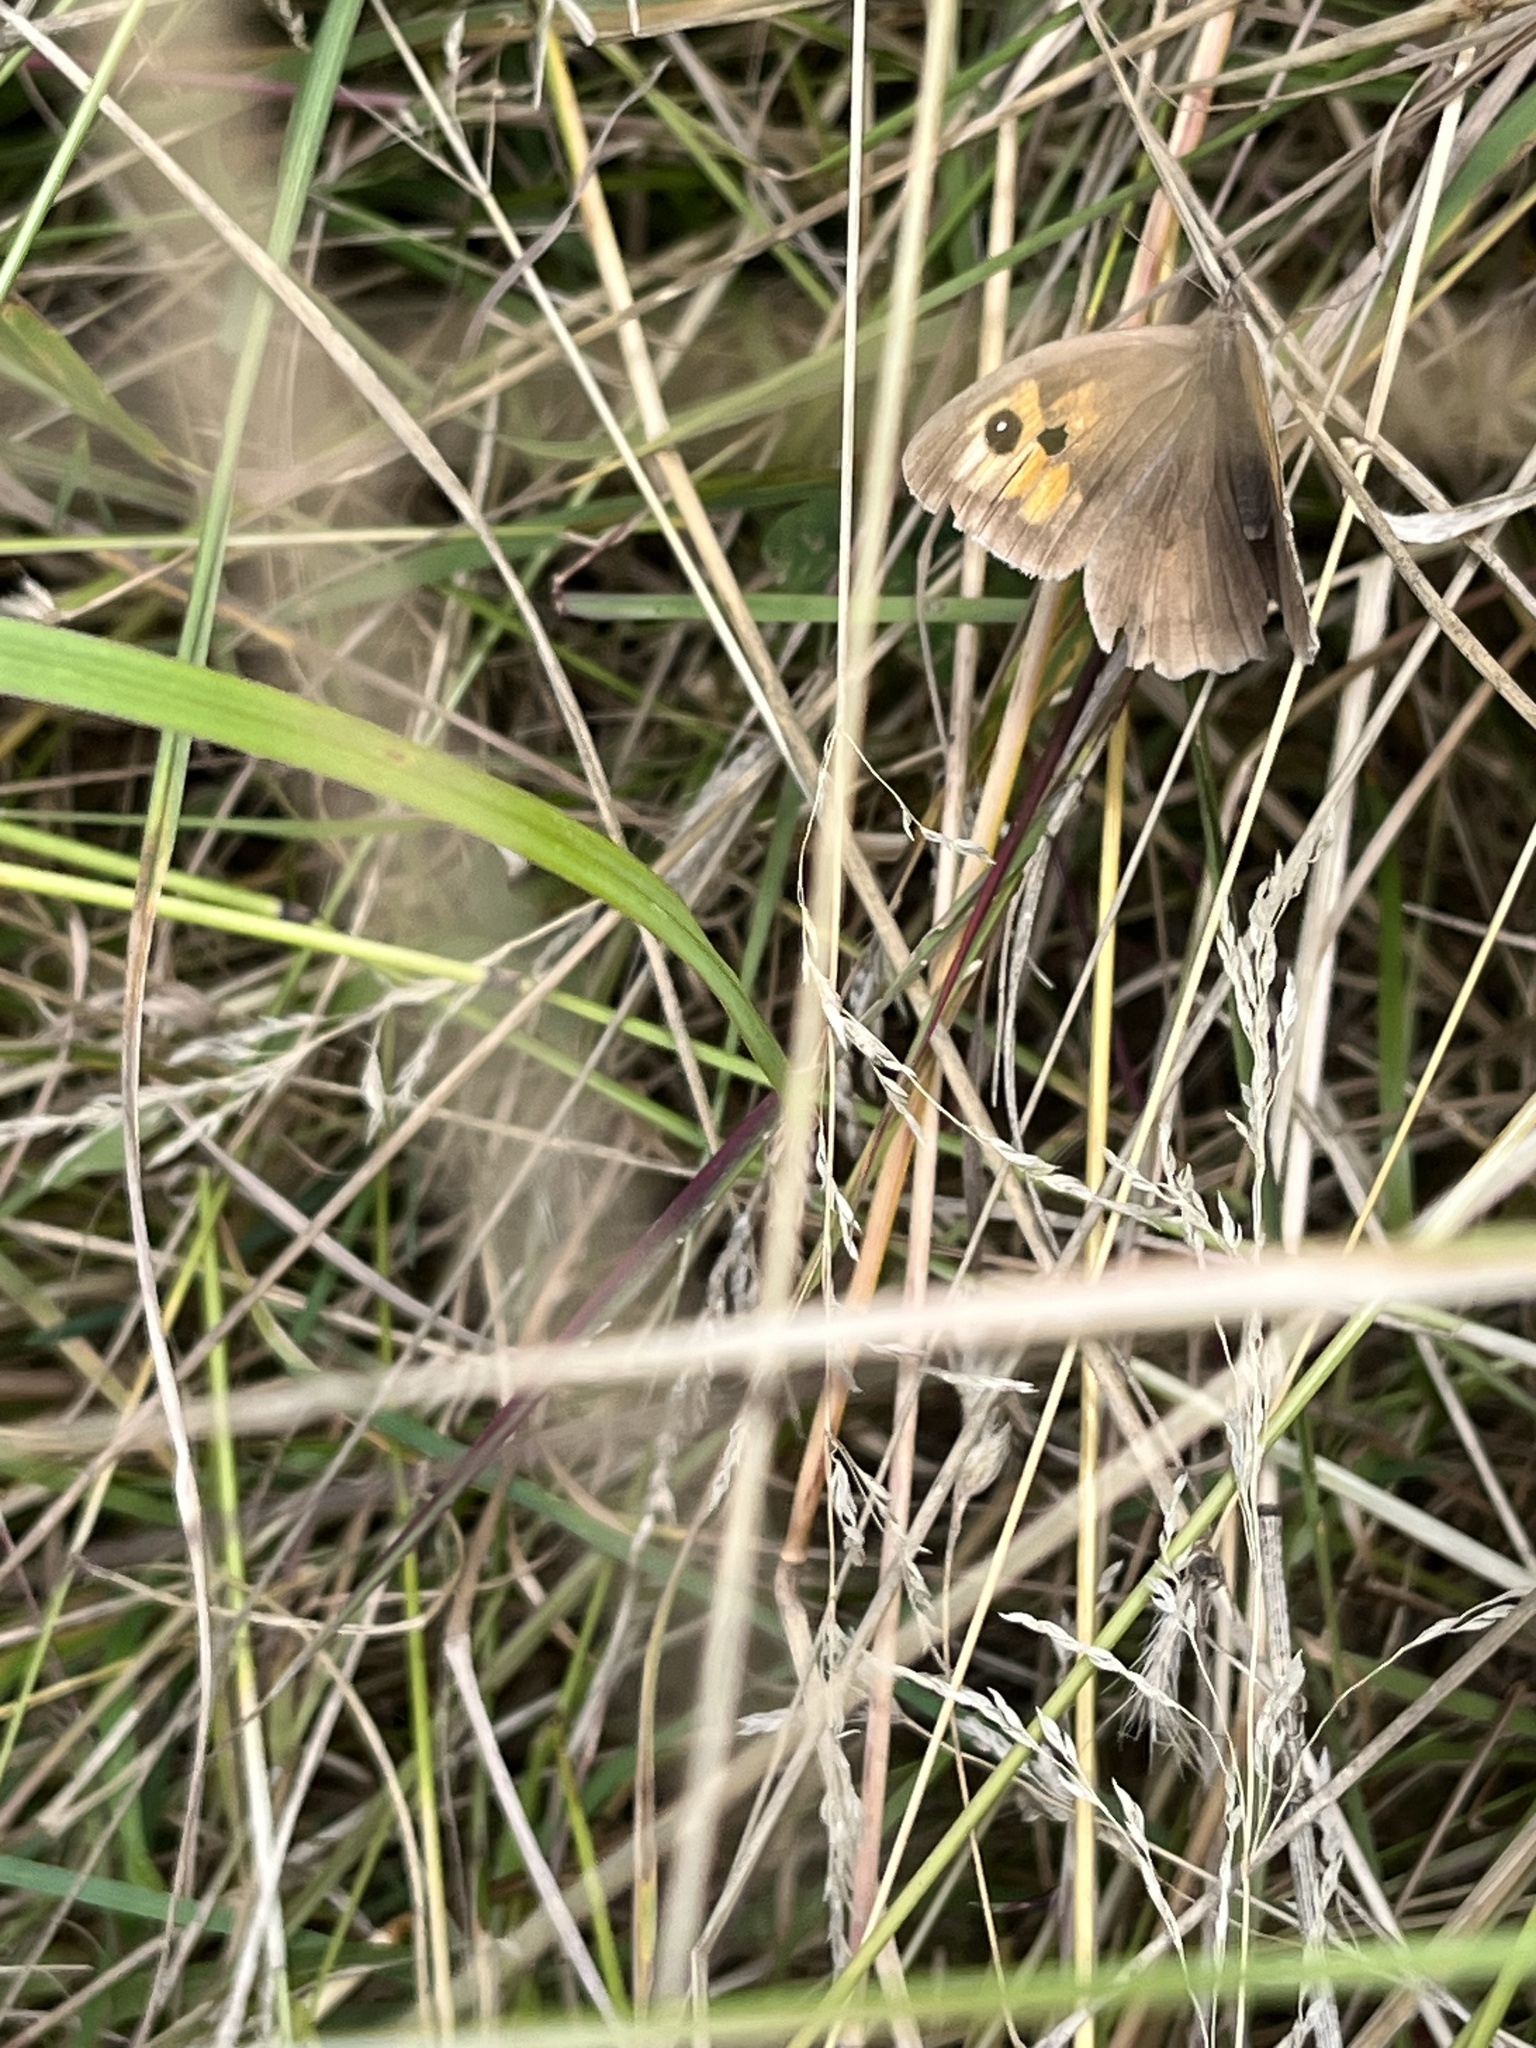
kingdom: Animalia
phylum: Arthropoda
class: Insecta
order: Lepidoptera
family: Nymphalidae
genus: Maniola
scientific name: Maniola jurtina
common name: Meadow brown
